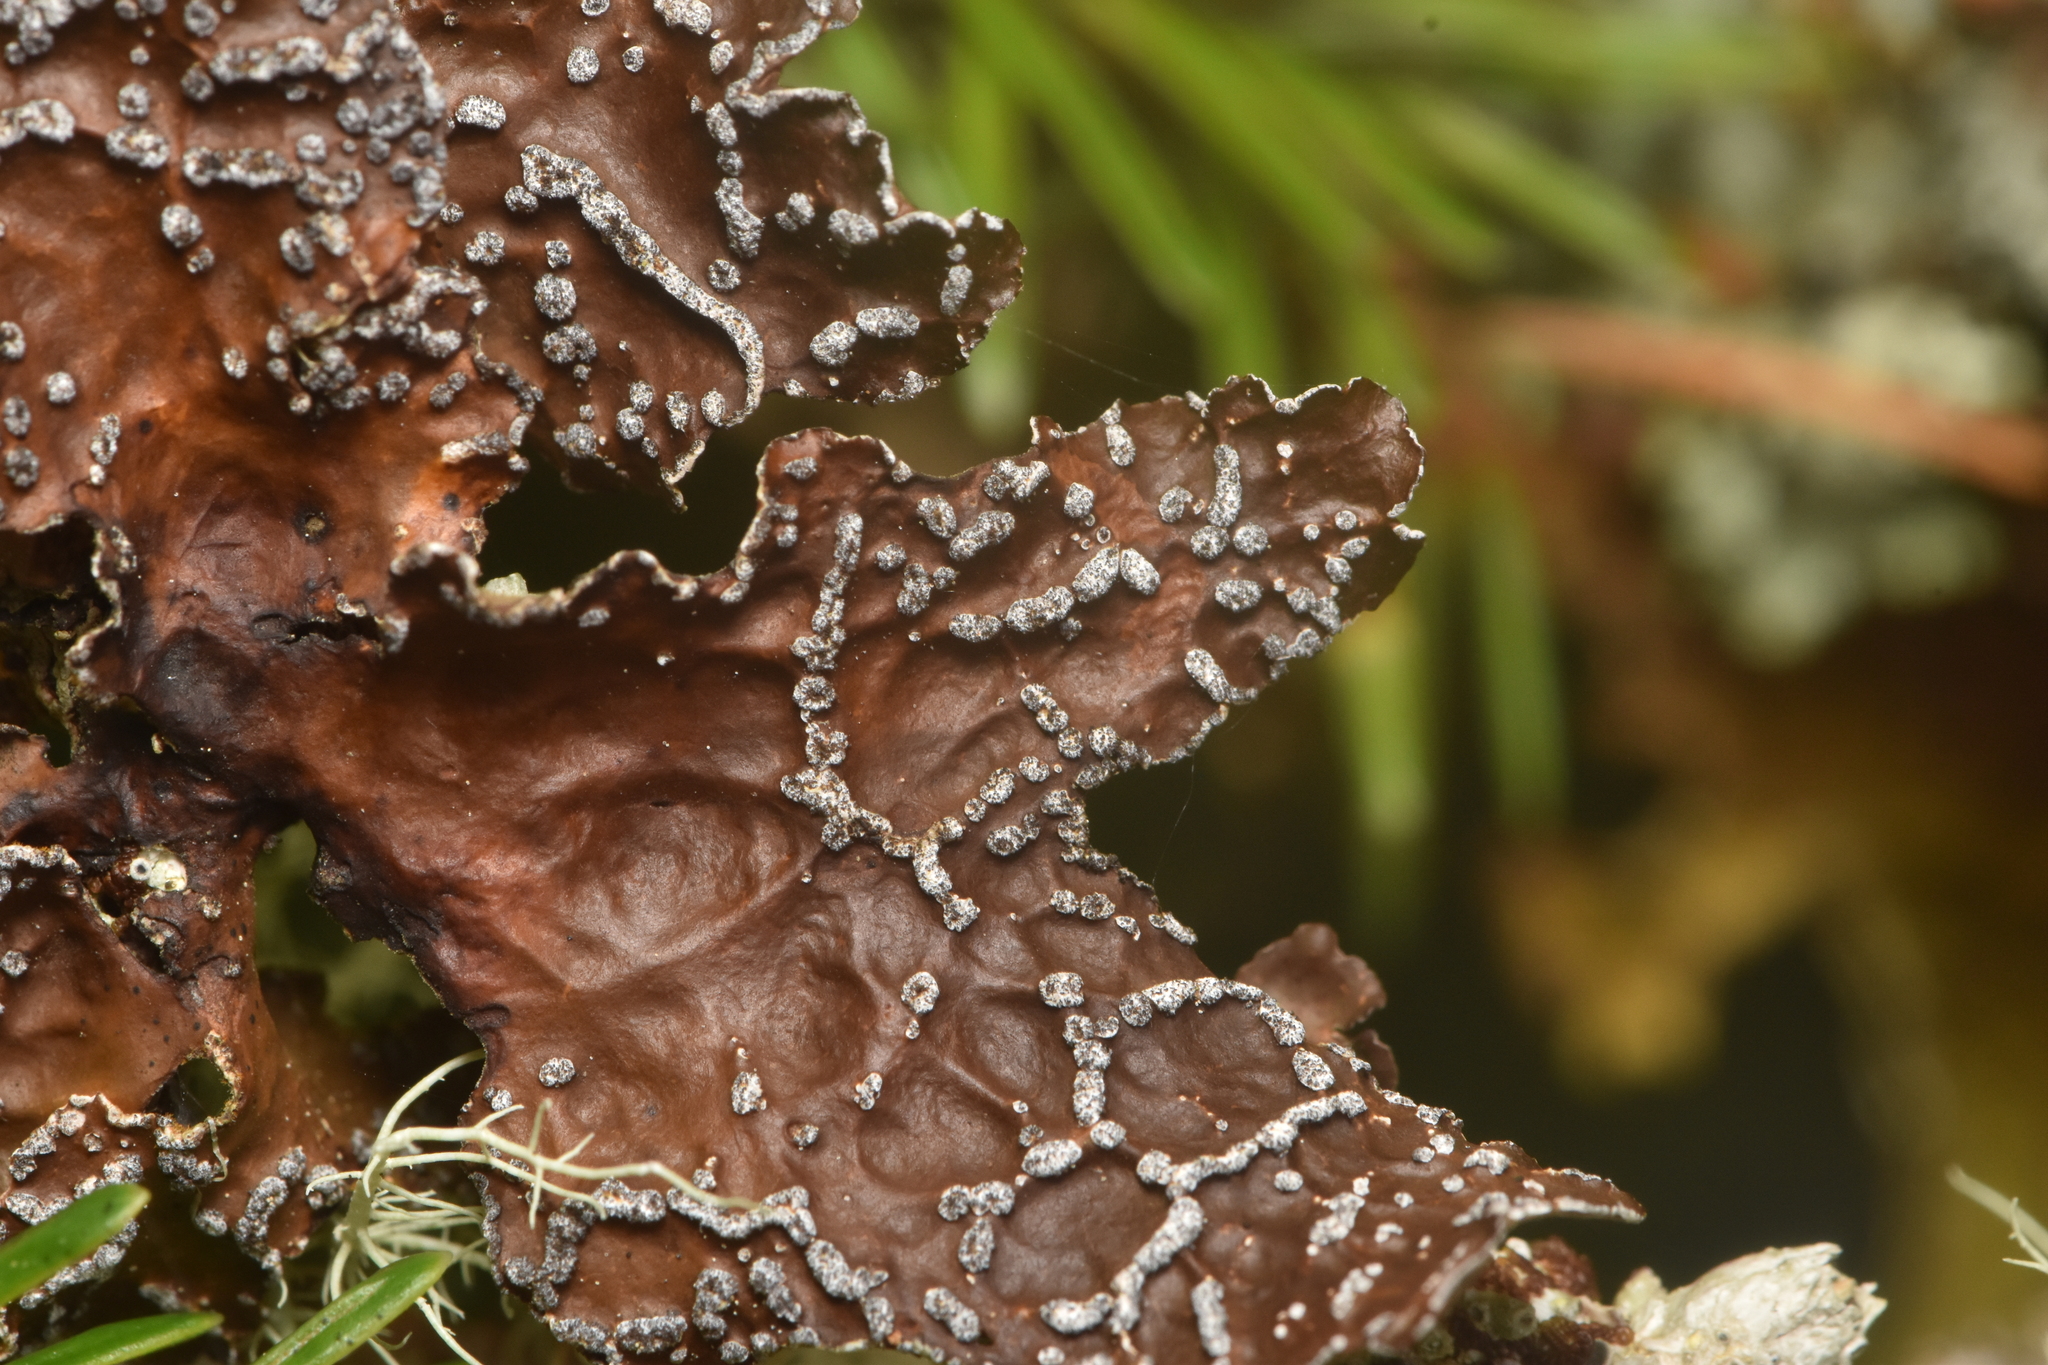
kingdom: Fungi
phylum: Ascomycota
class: Lecanoromycetes
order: Peltigerales
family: Lobariaceae
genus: Lobaria
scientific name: Lobaria anomala
